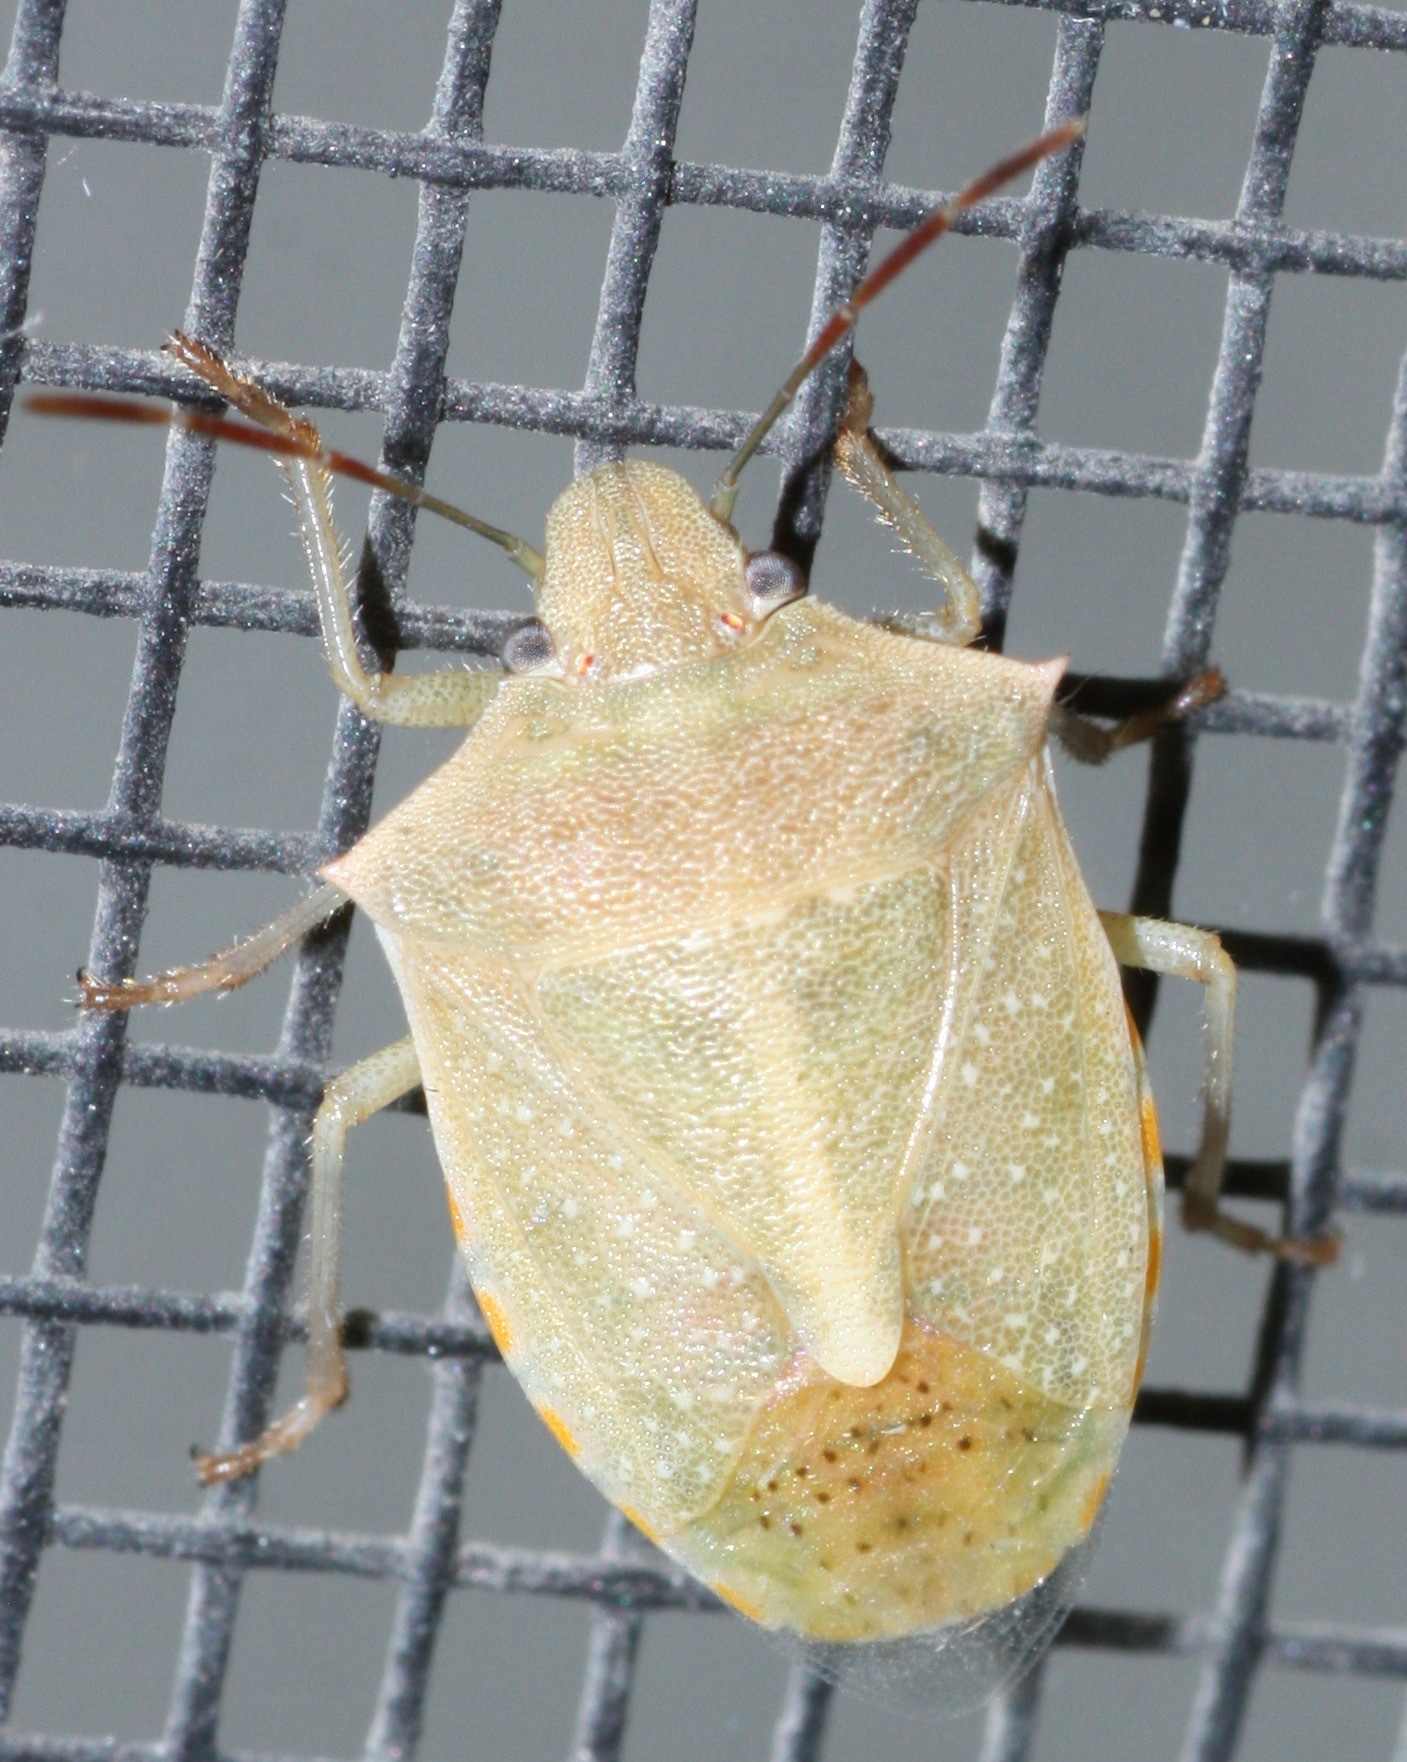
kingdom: Animalia
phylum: Arthropoda
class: Insecta
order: Hemiptera
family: Pentatomidae
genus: Thyanta
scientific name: Thyanta accerra
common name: Stink bug
